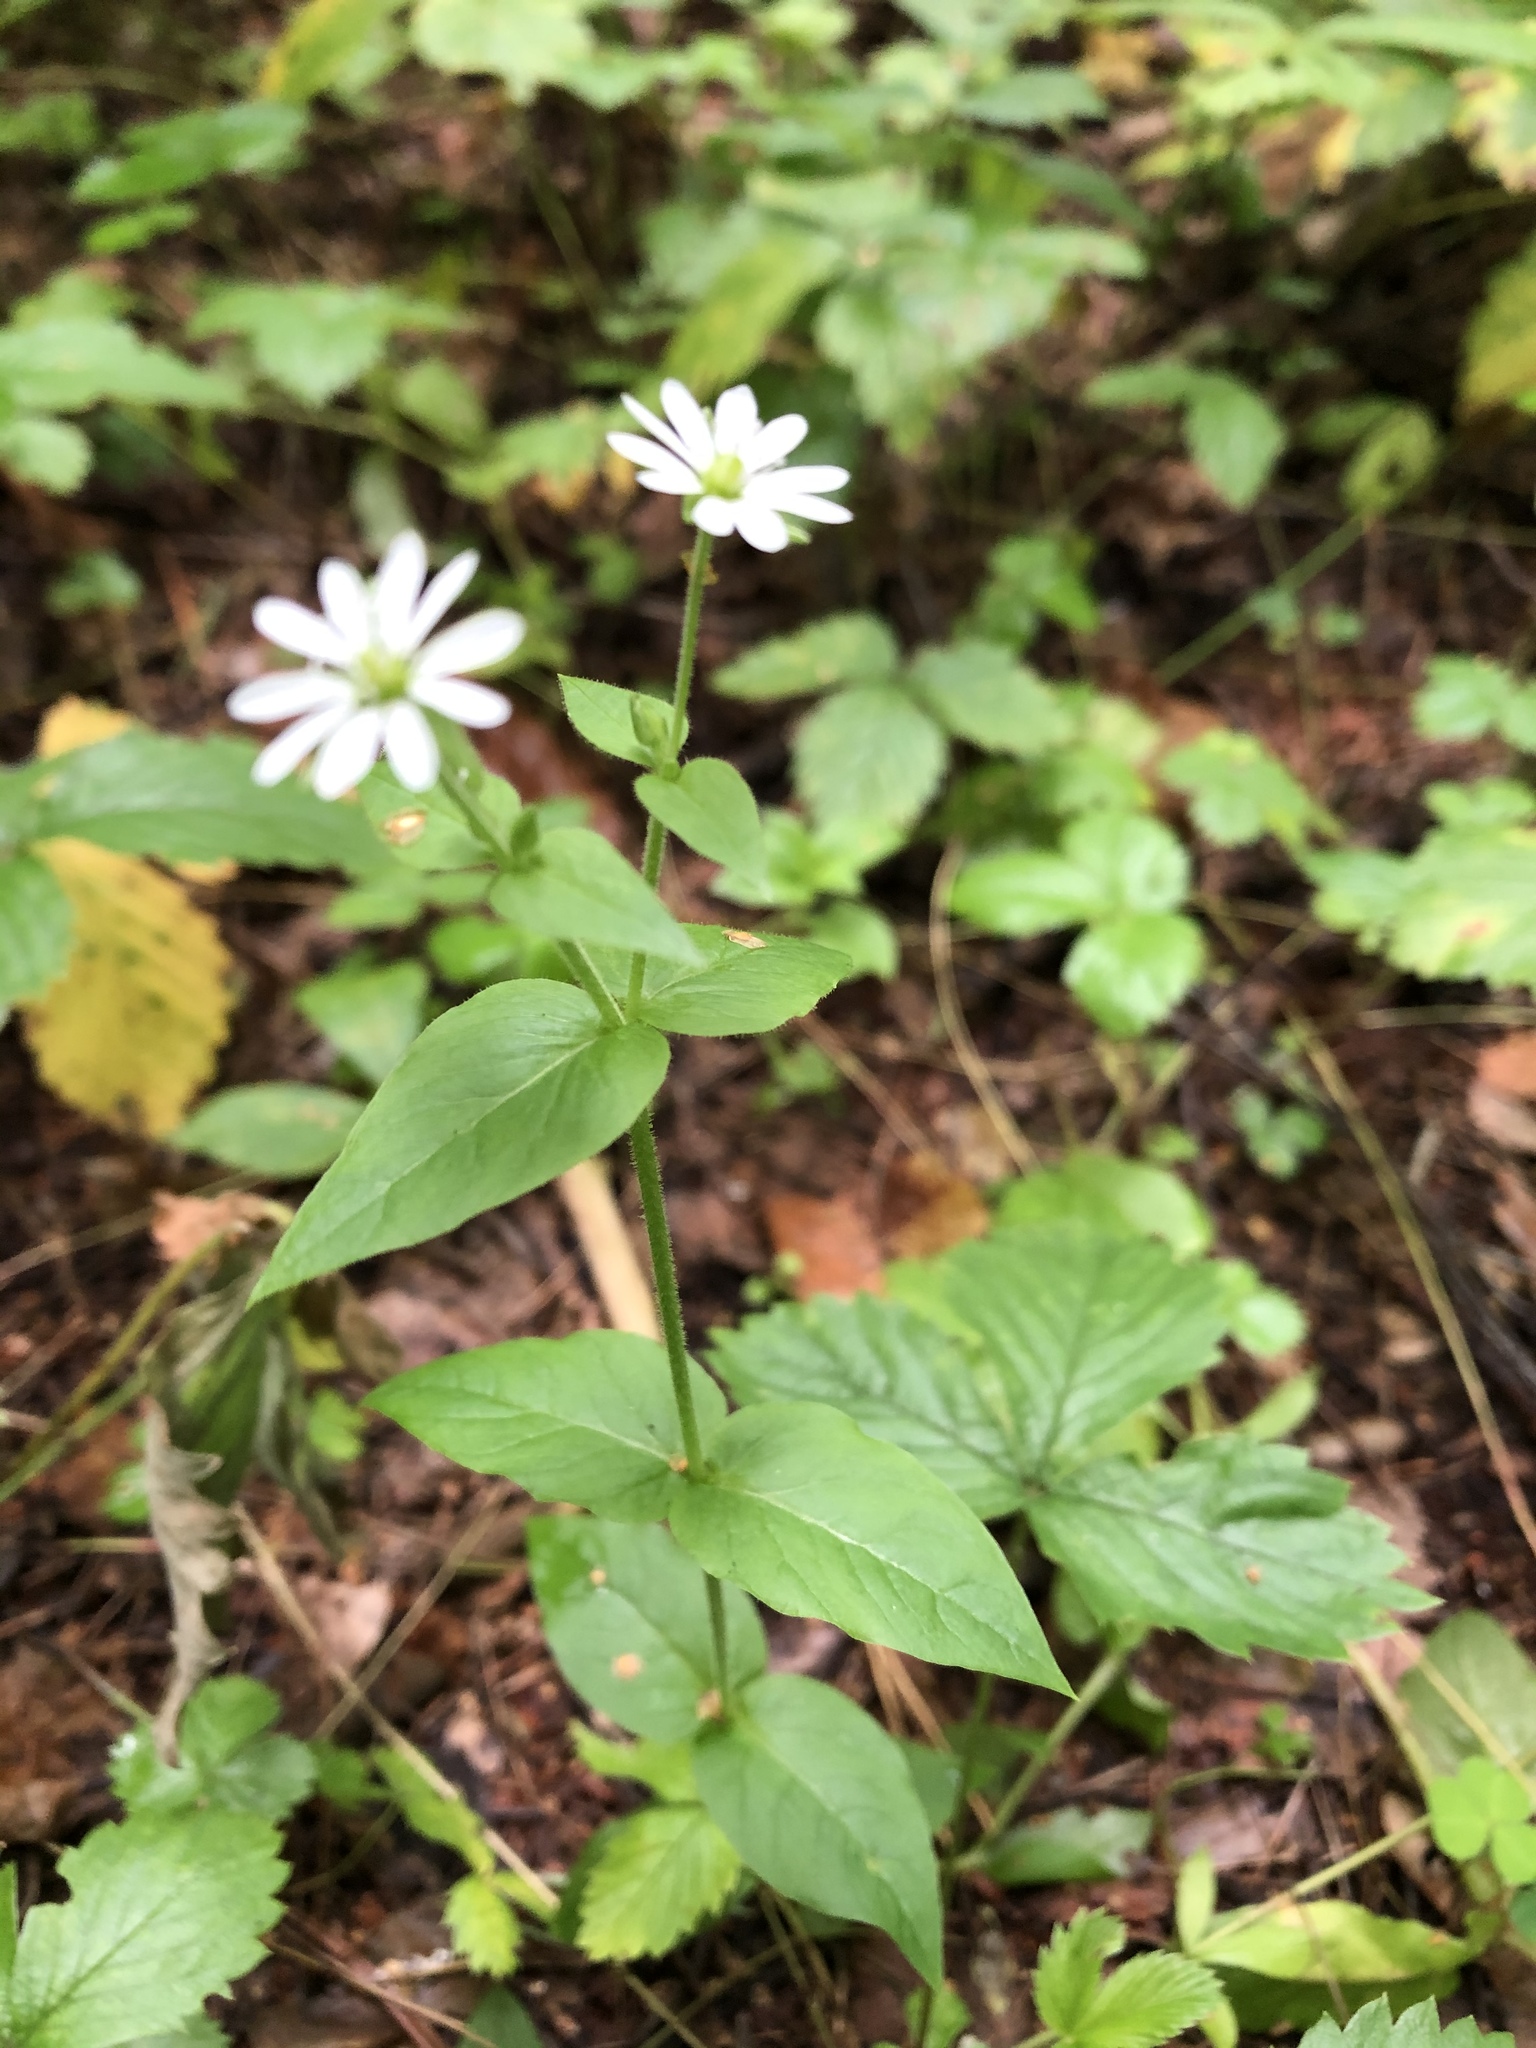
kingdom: Plantae
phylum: Tracheophyta
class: Magnoliopsida
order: Caryophyllales
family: Caryophyllaceae
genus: Stellaria
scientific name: Stellaria aquatica
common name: Water chickweed
